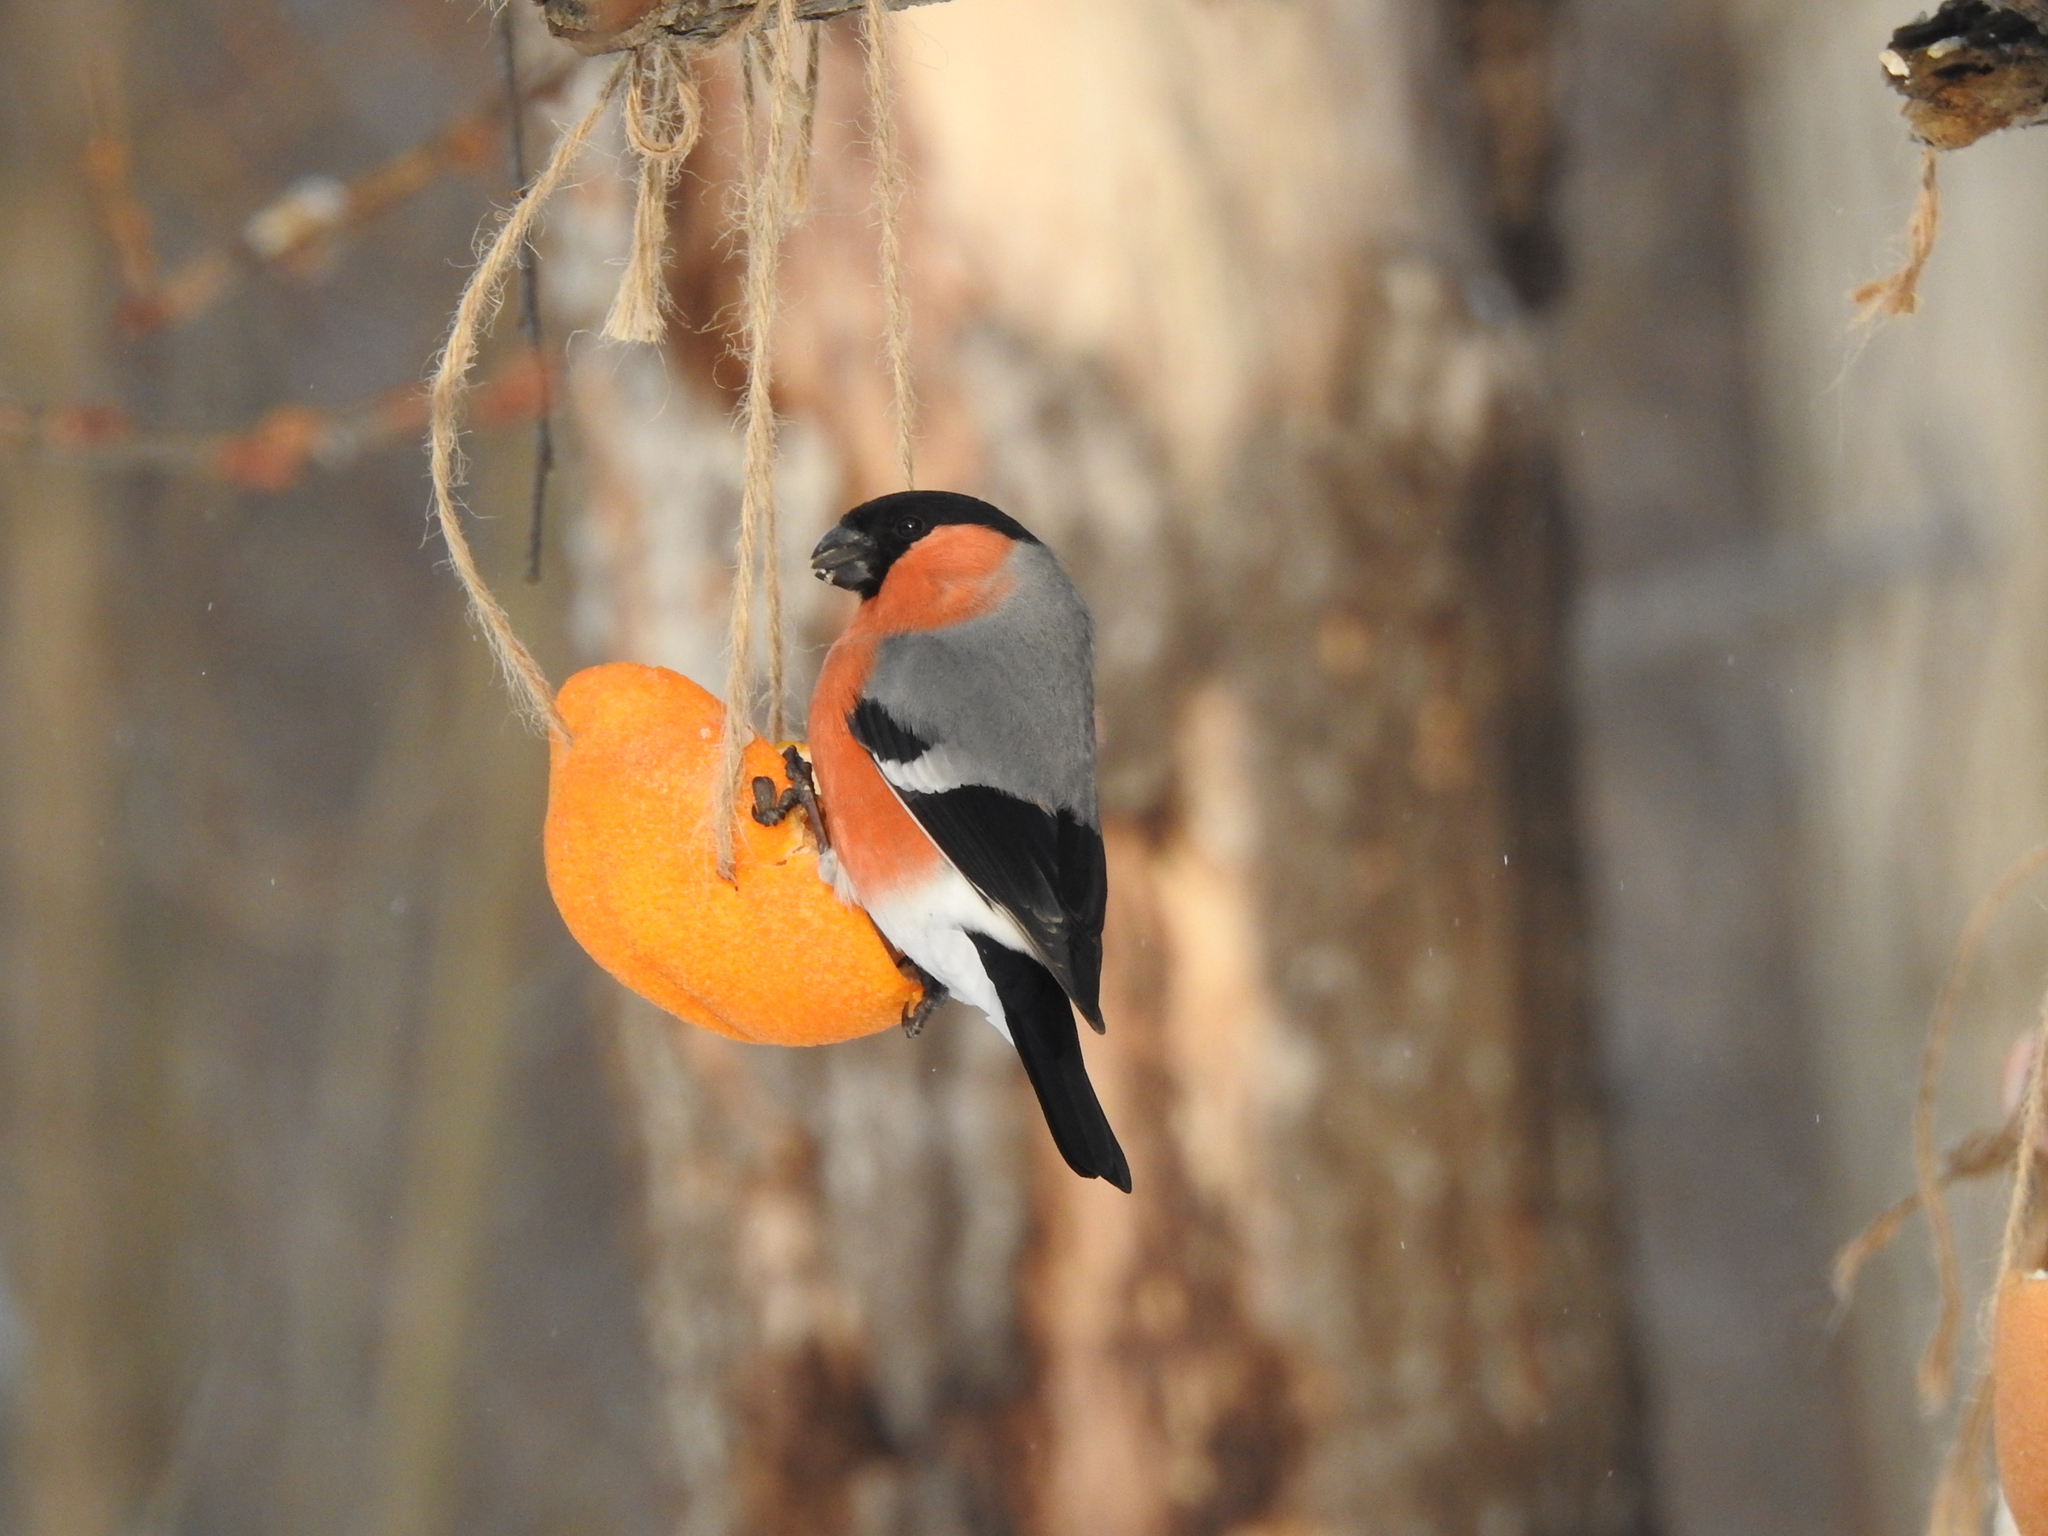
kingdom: Animalia
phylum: Chordata
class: Aves
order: Passeriformes
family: Fringillidae
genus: Pyrrhula
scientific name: Pyrrhula pyrrhula
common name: Eurasian bullfinch
